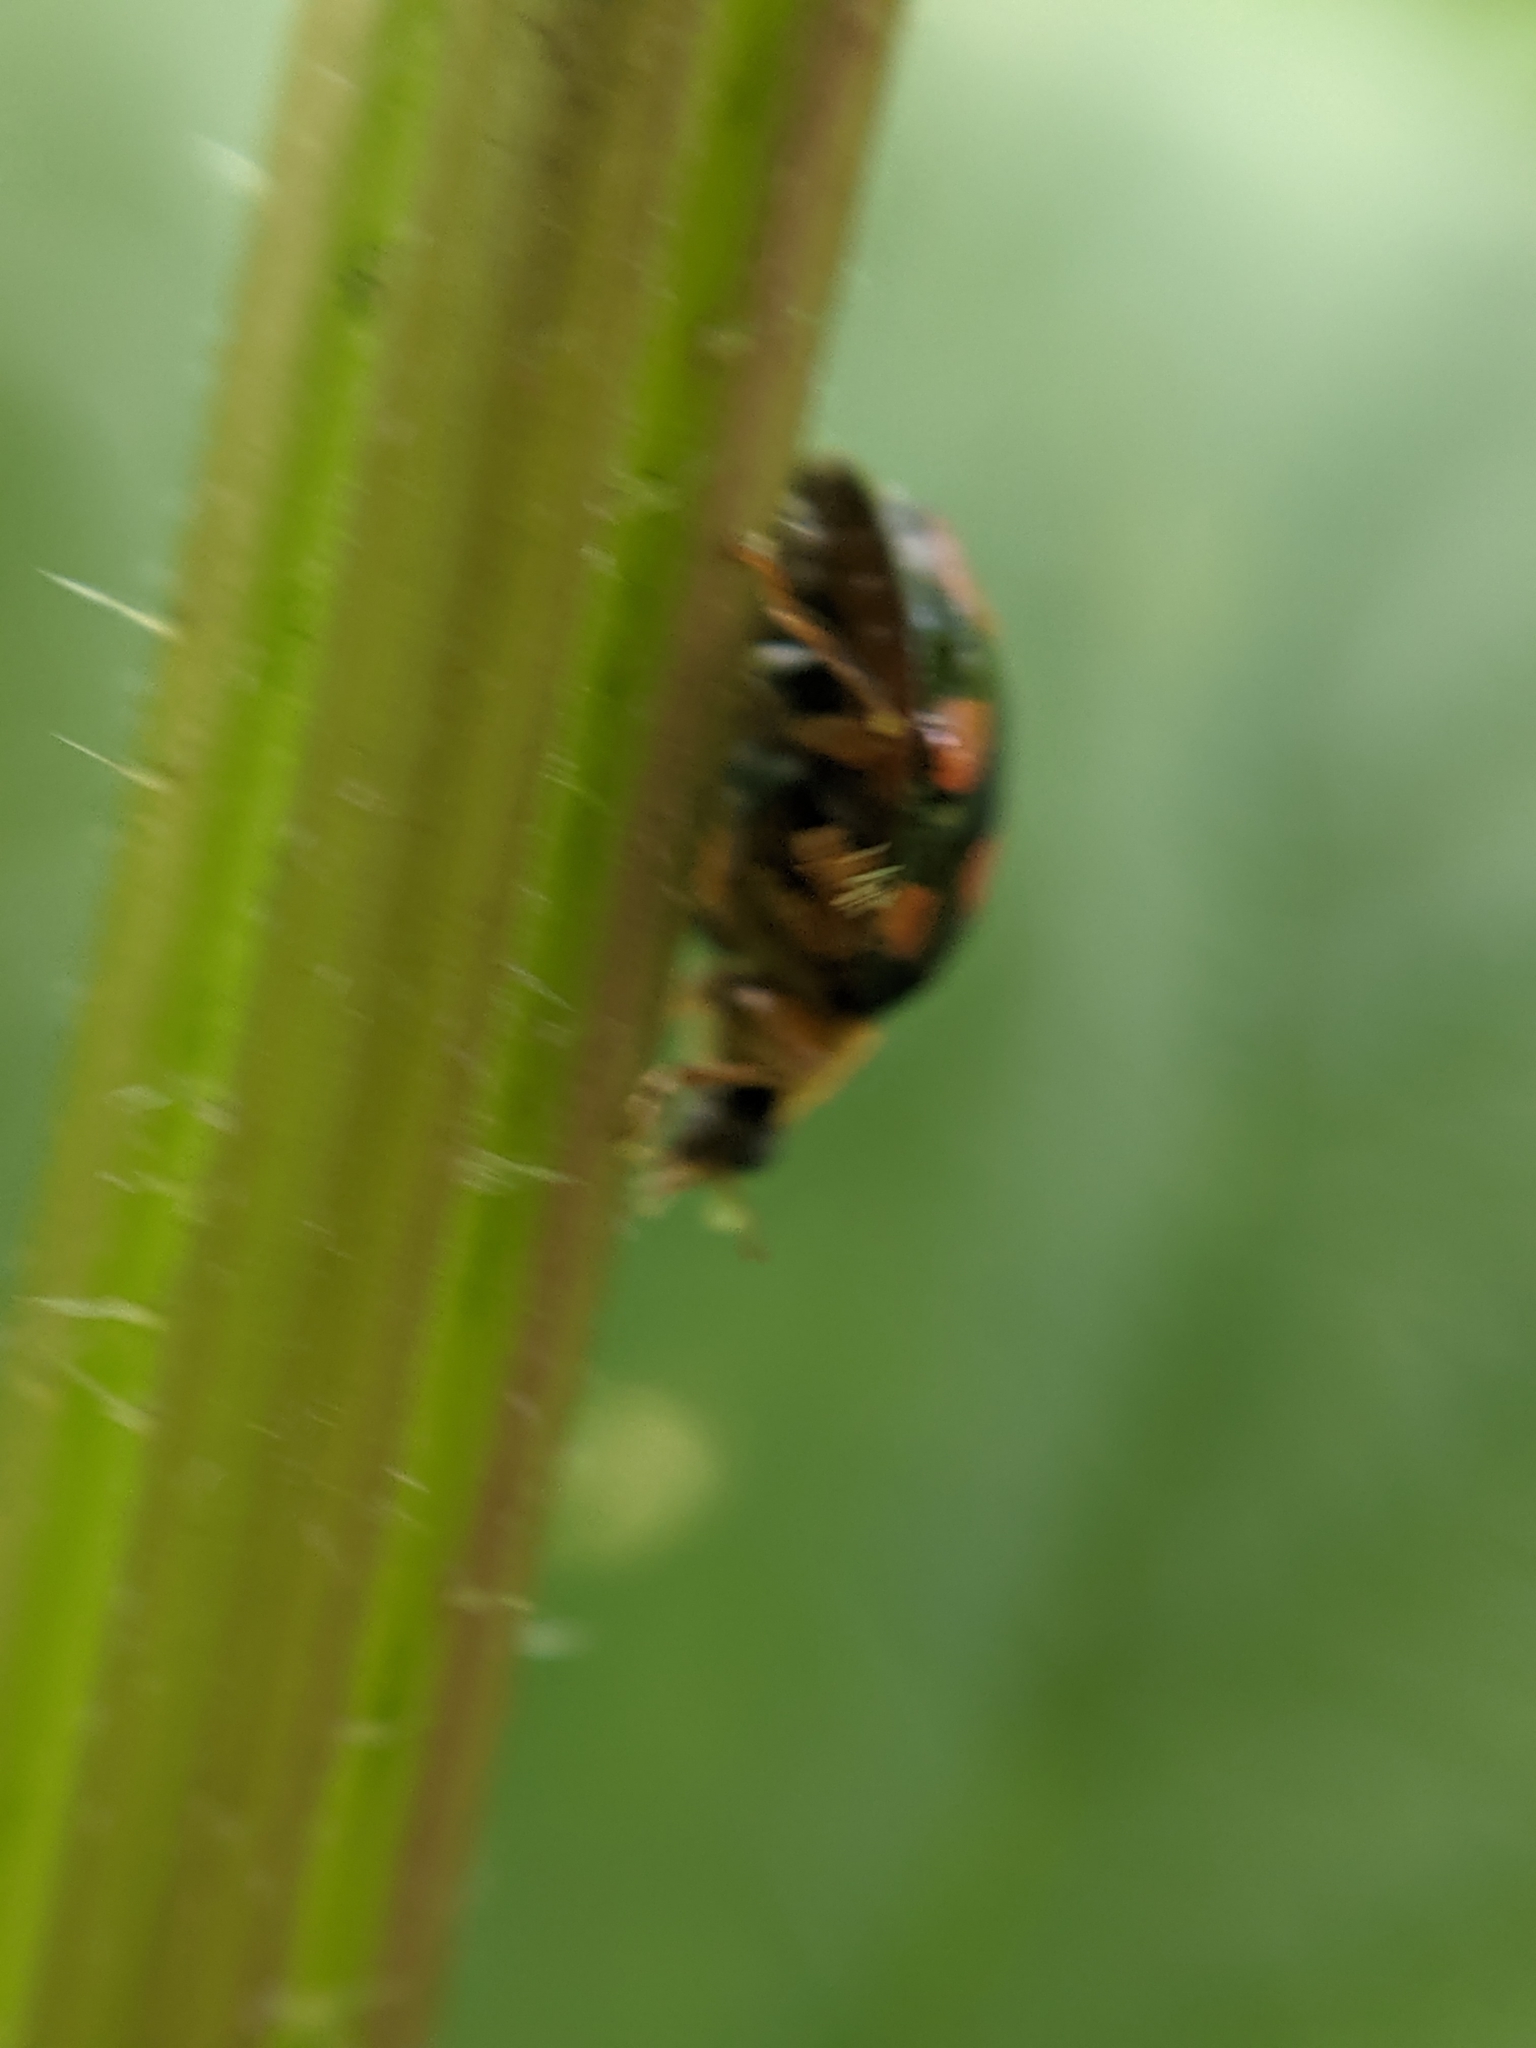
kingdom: Animalia
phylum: Arthropoda
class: Insecta
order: Coleoptera
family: Coccinellidae
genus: Harmonia
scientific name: Harmonia axyridis
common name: Harlequin ladybird
